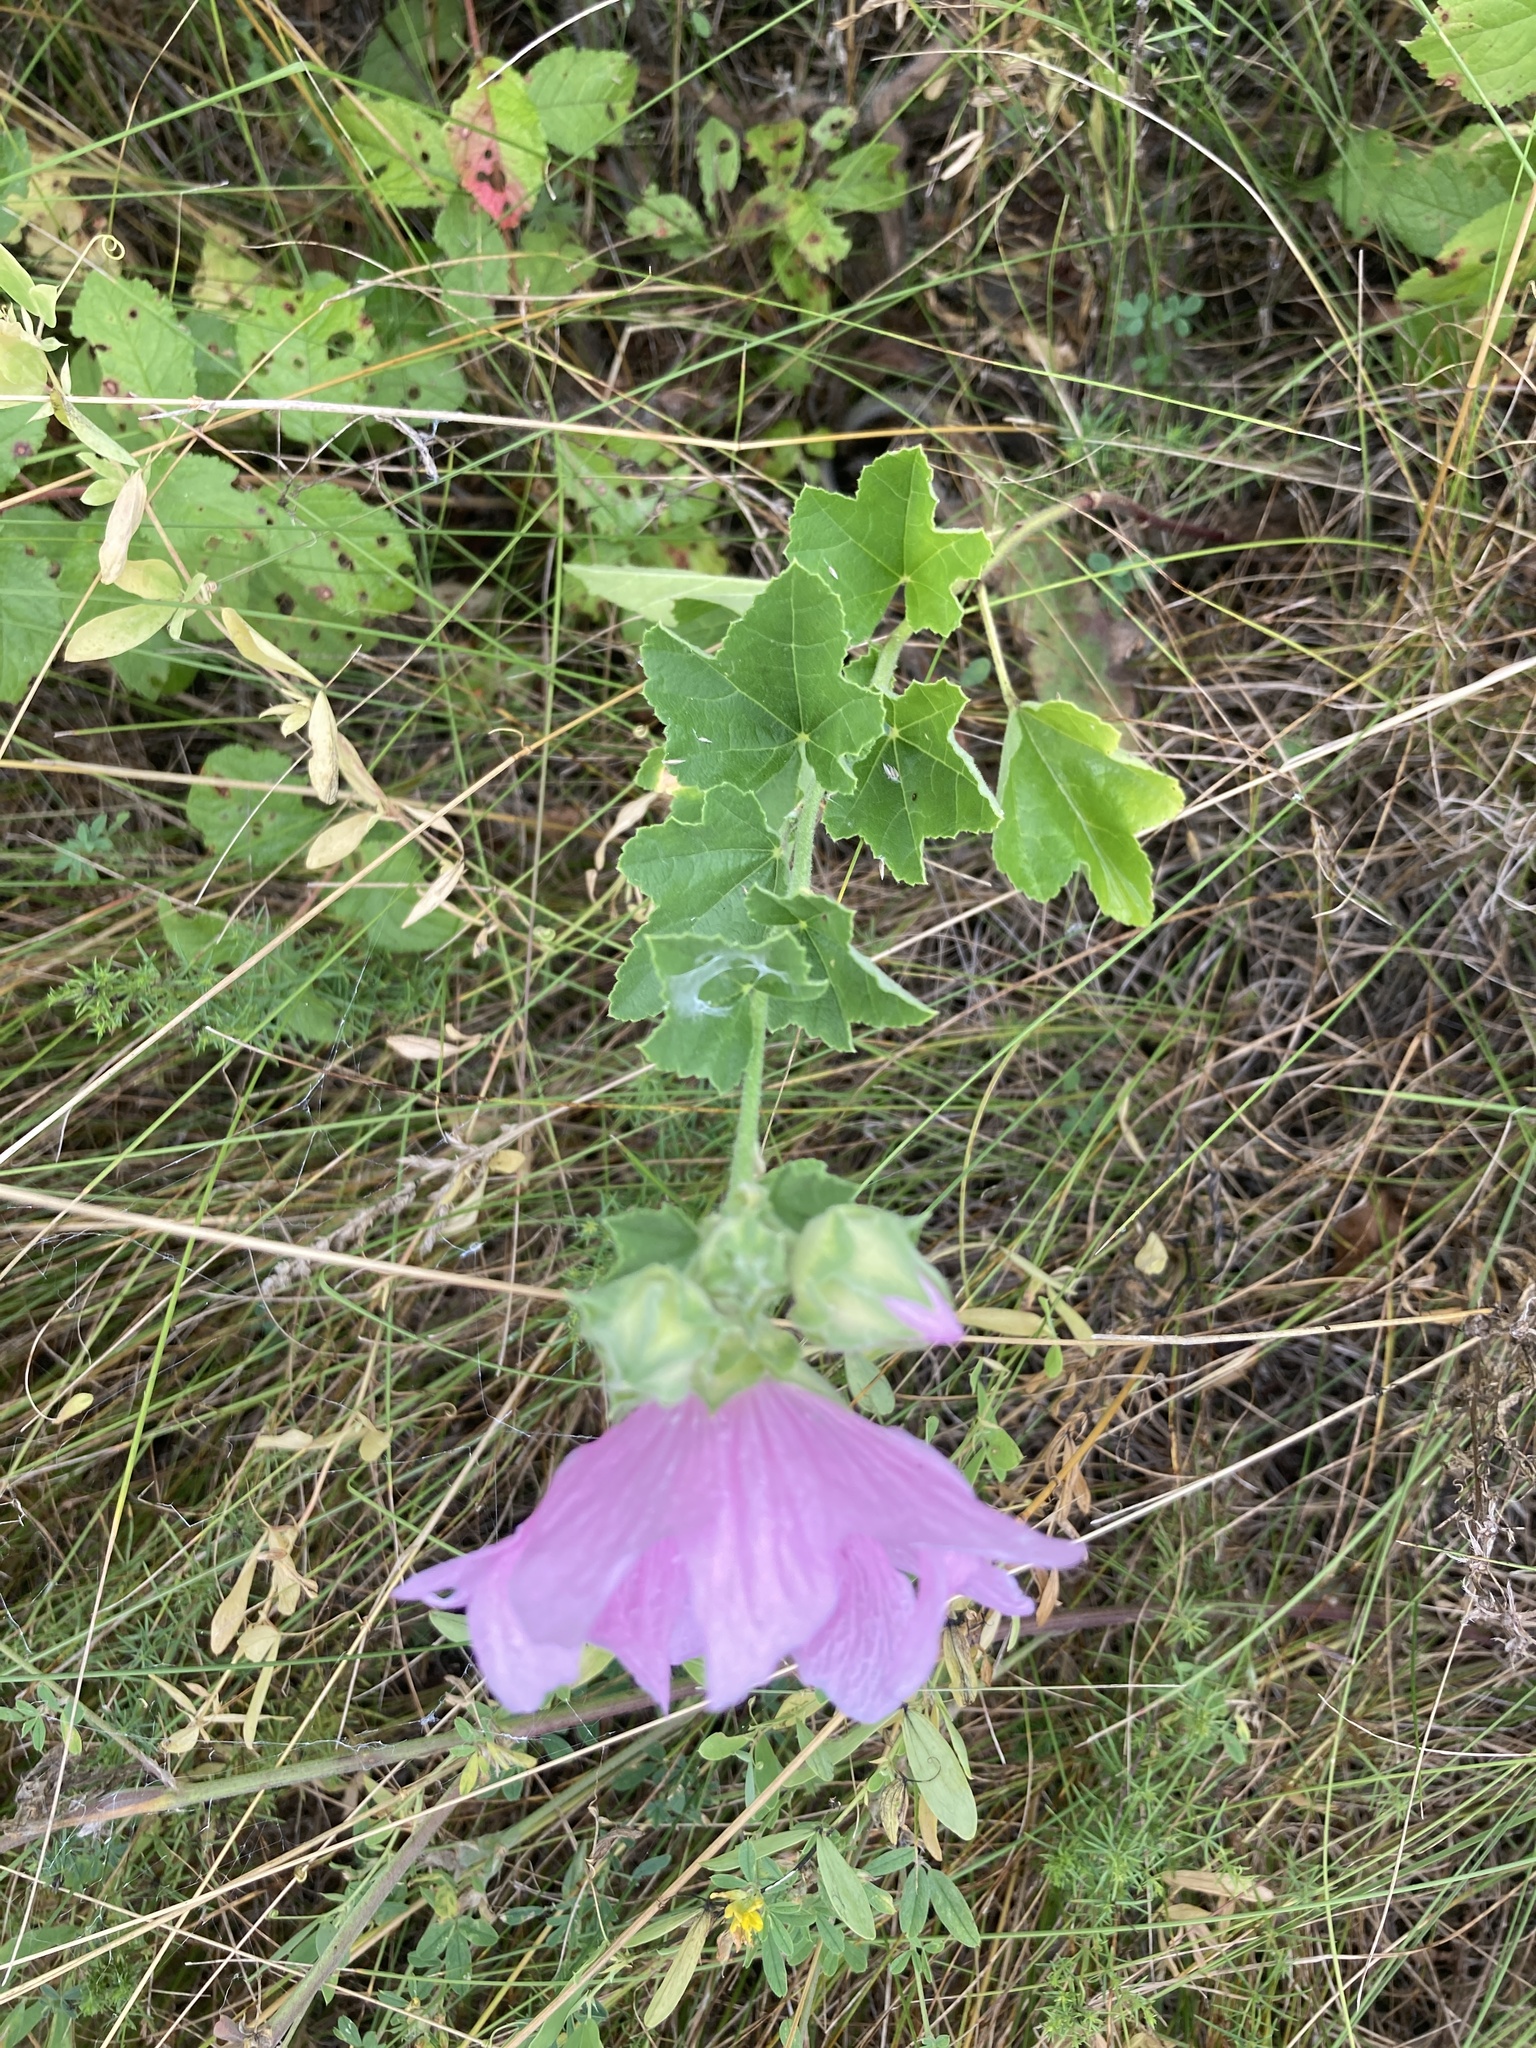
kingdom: Plantae
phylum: Tracheophyta
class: Magnoliopsida
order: Malvales
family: Malvaceae
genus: Malva
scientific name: Malva thuringiaca
